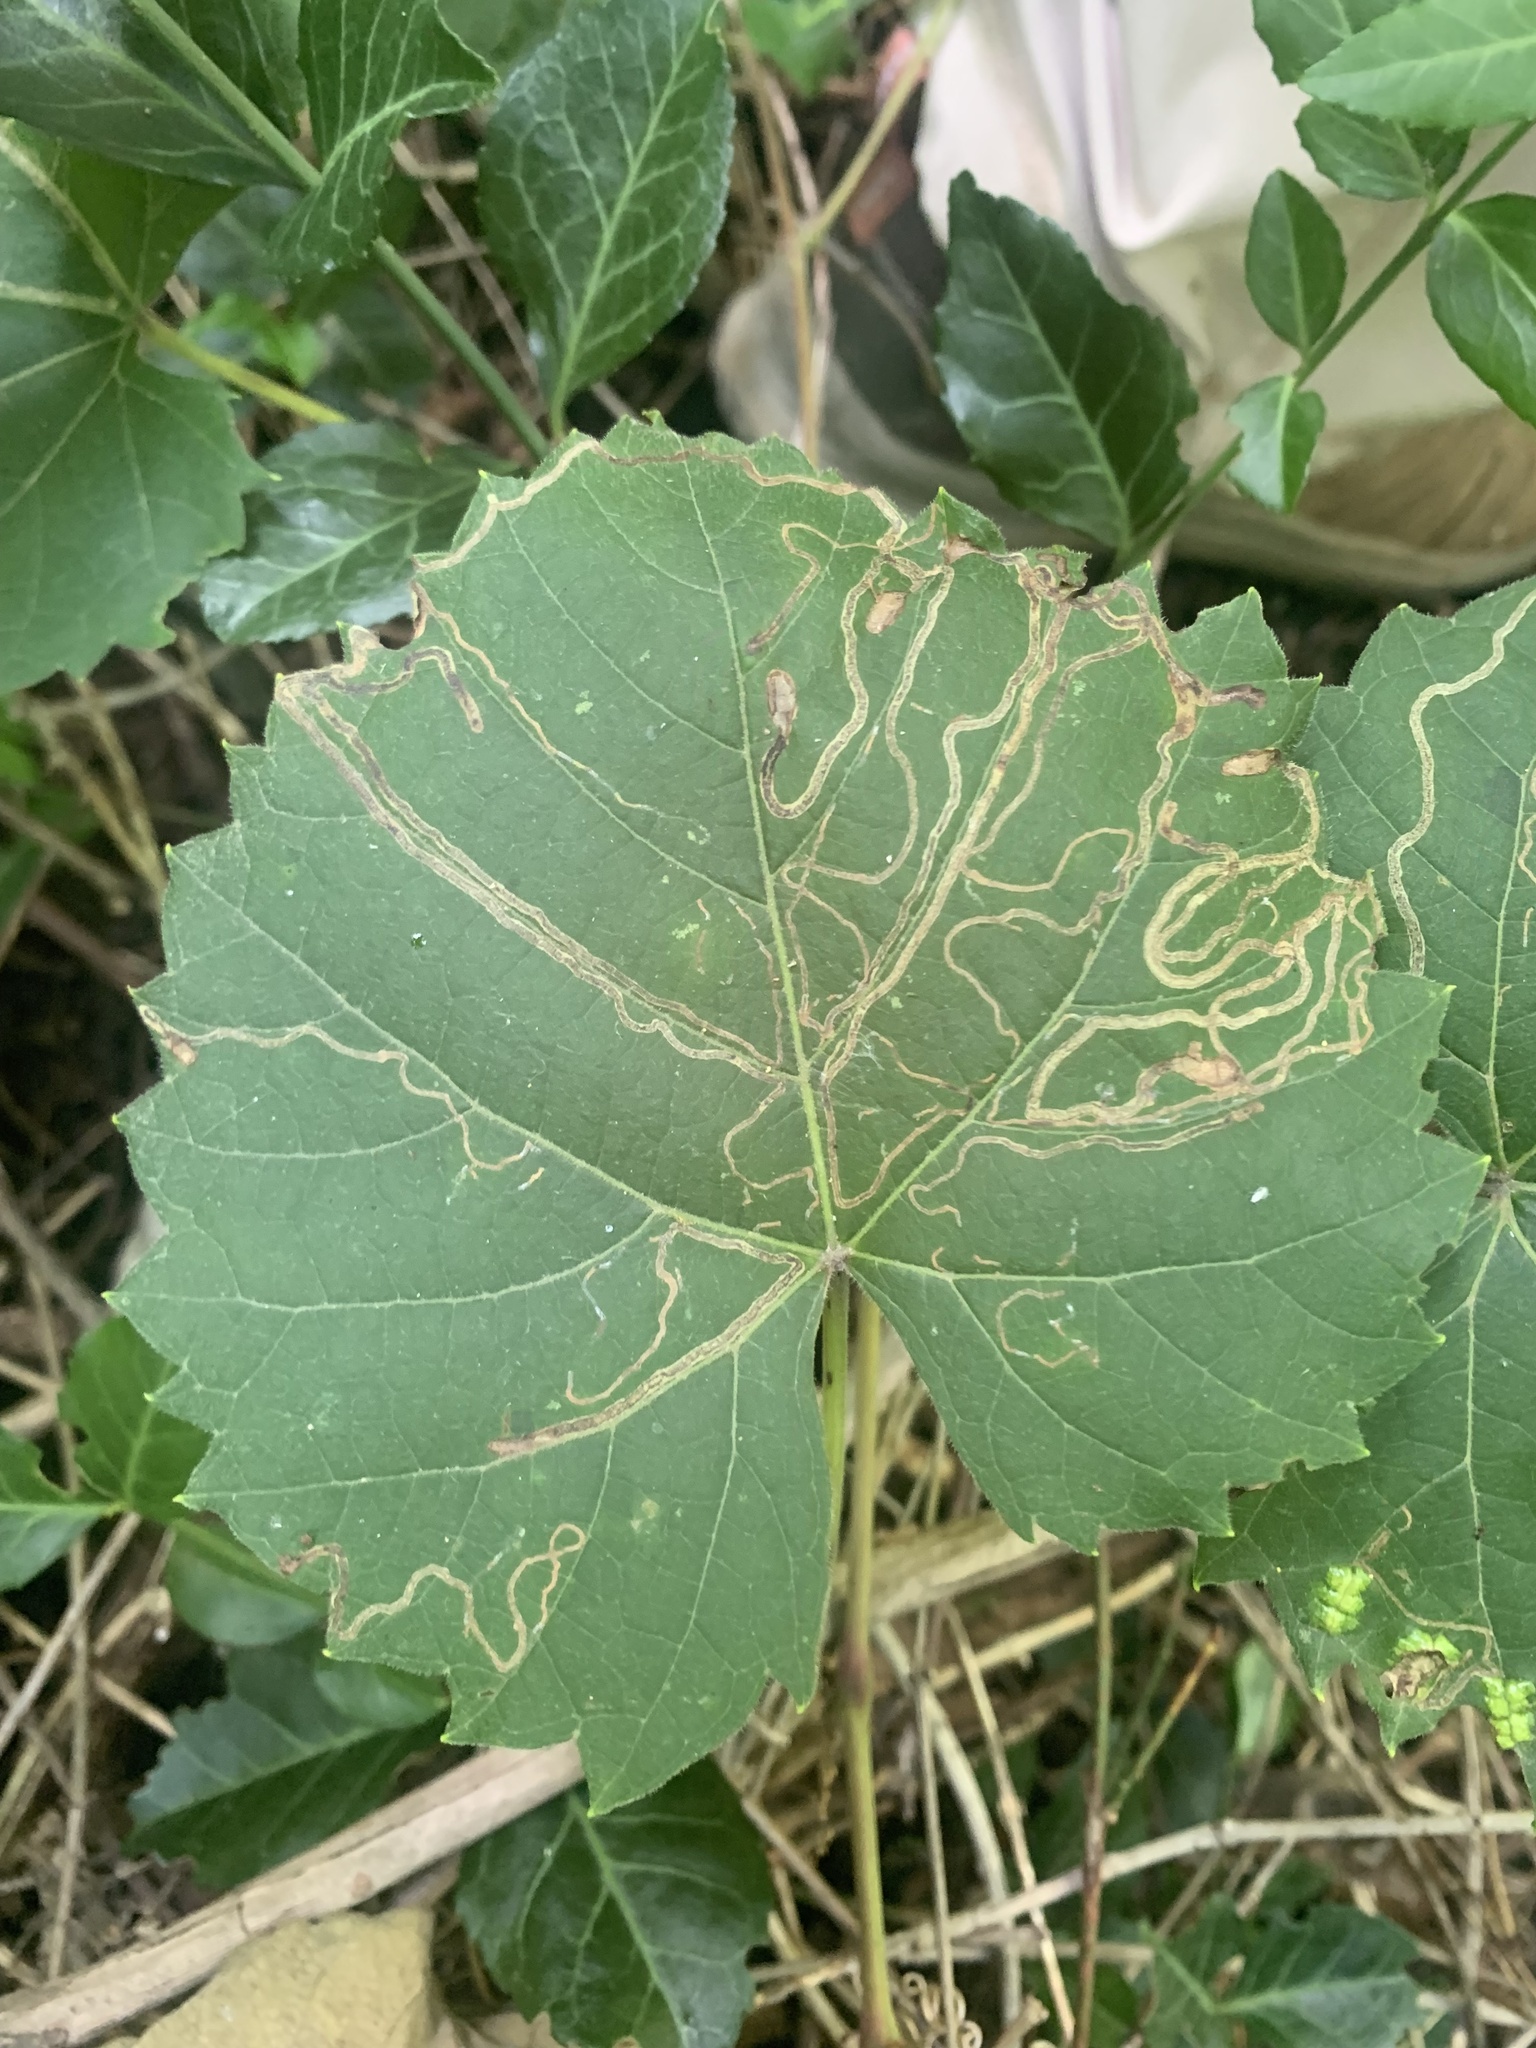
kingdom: Animalia
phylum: Arthropoda
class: Insecta
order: Lepidoptera
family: Gracillariidae
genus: Phyllocnistis
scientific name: Phyllocnistis vitifoliella
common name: Grape leaf-miner moth
